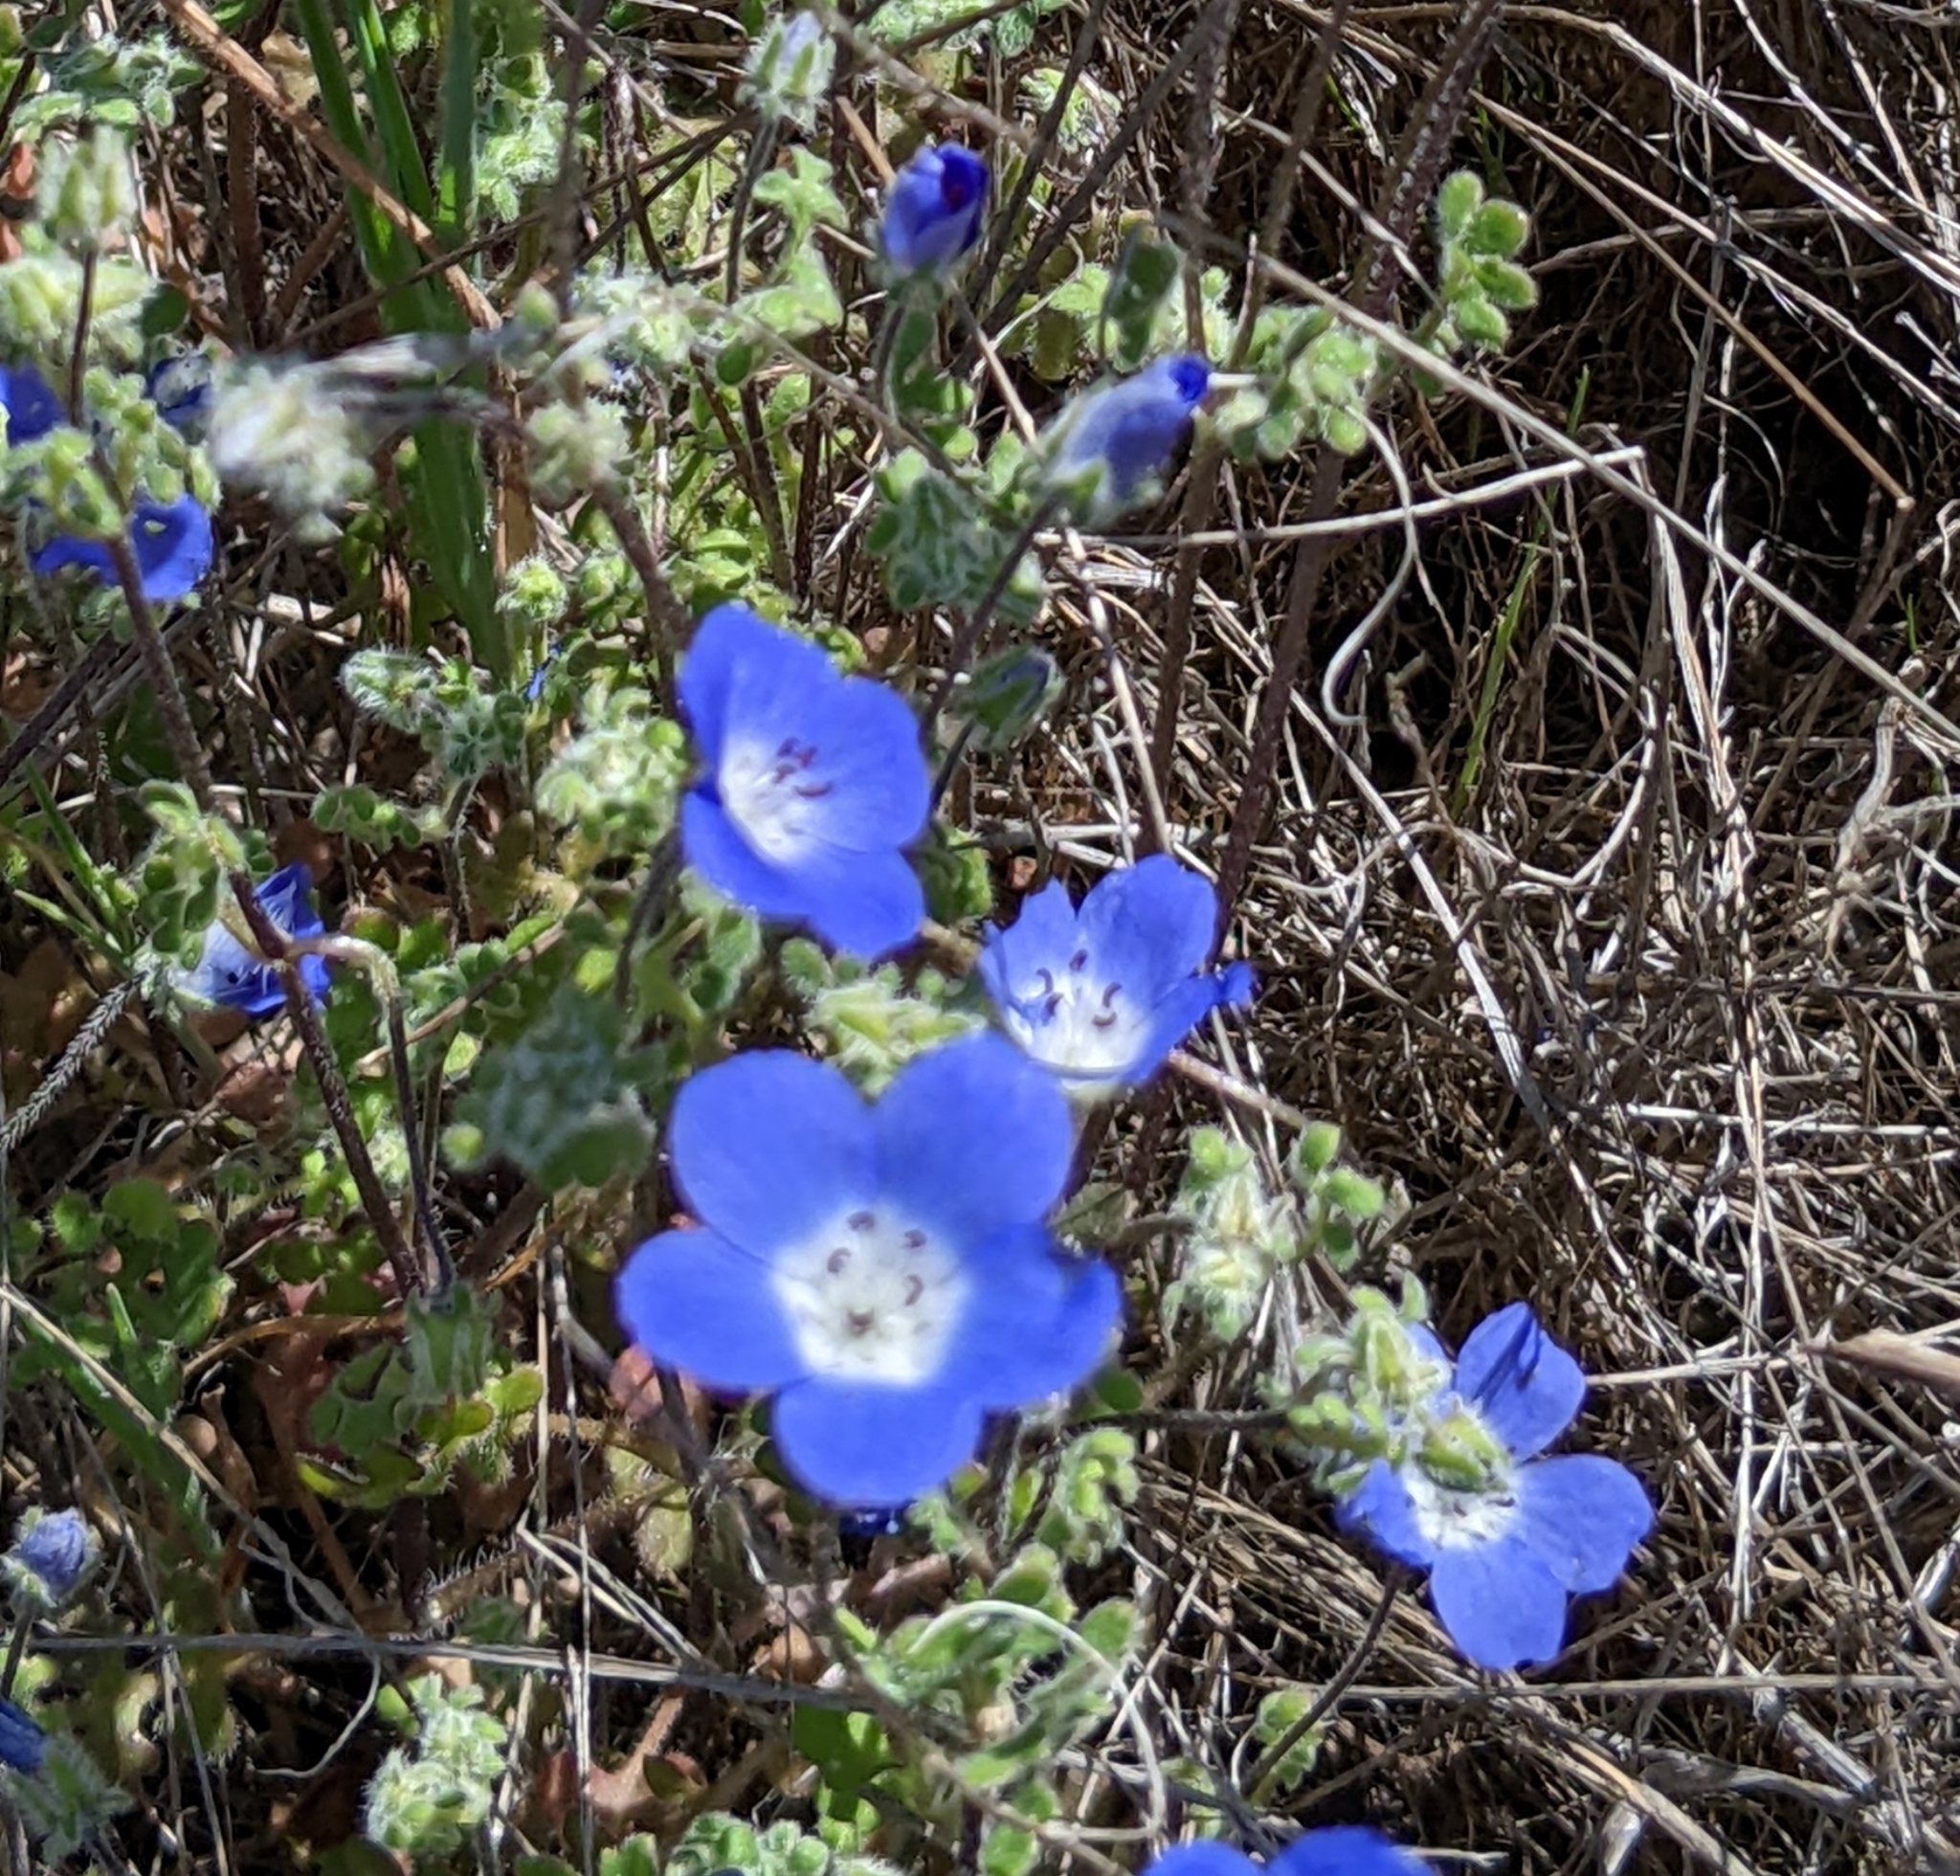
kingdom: Plantae
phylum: Tracheophyta
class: Magnoliopsida
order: Boraginales
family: Hydrophyllaceae
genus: Nemophila
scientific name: Nemophila menziesii
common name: Baby's-blue-eyes
